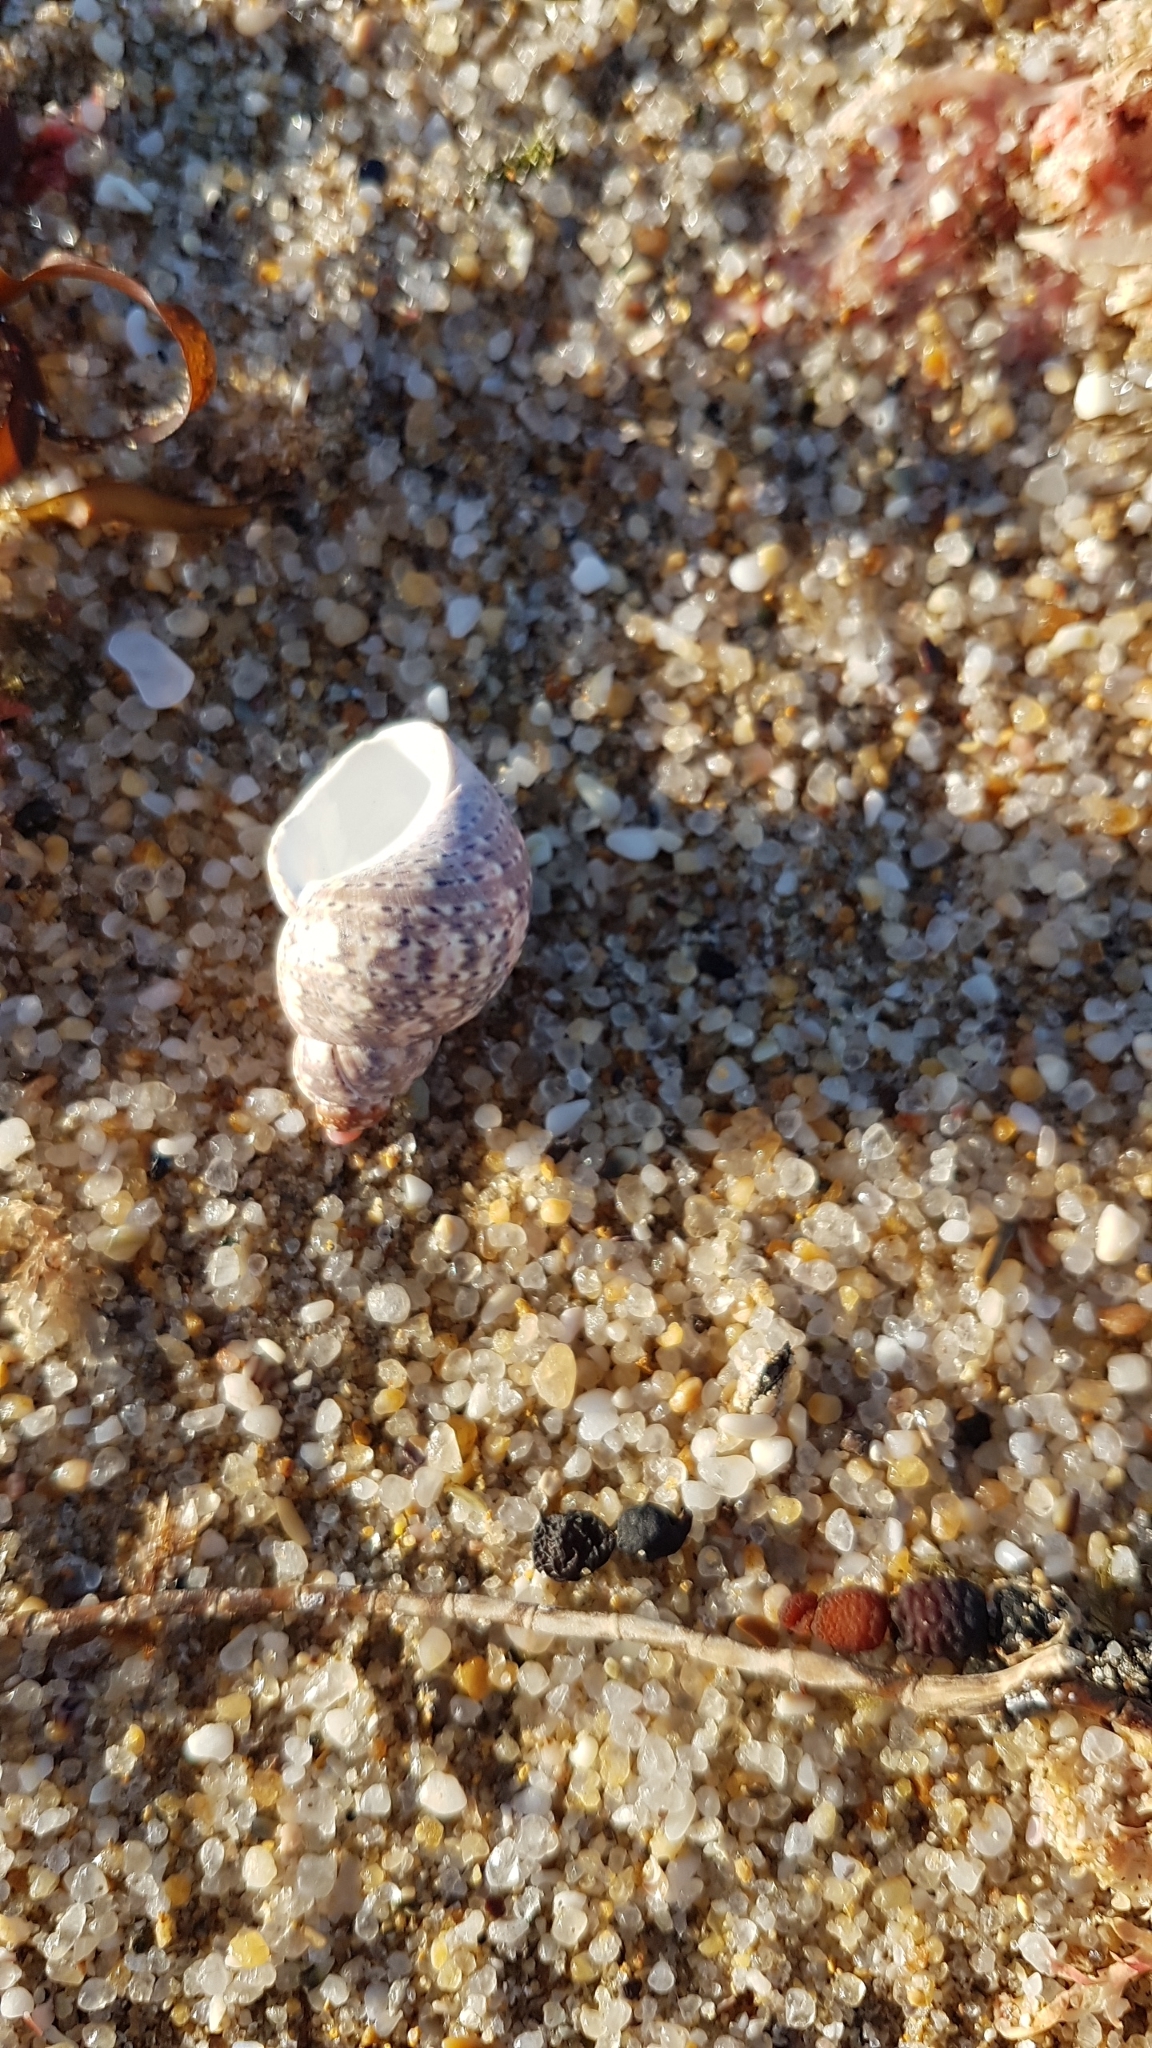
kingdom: Animalia
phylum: Mollusca
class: Gastropoda
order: Trochida
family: Phasianellidae
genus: Phasianella
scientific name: Phasianella ventricosa
